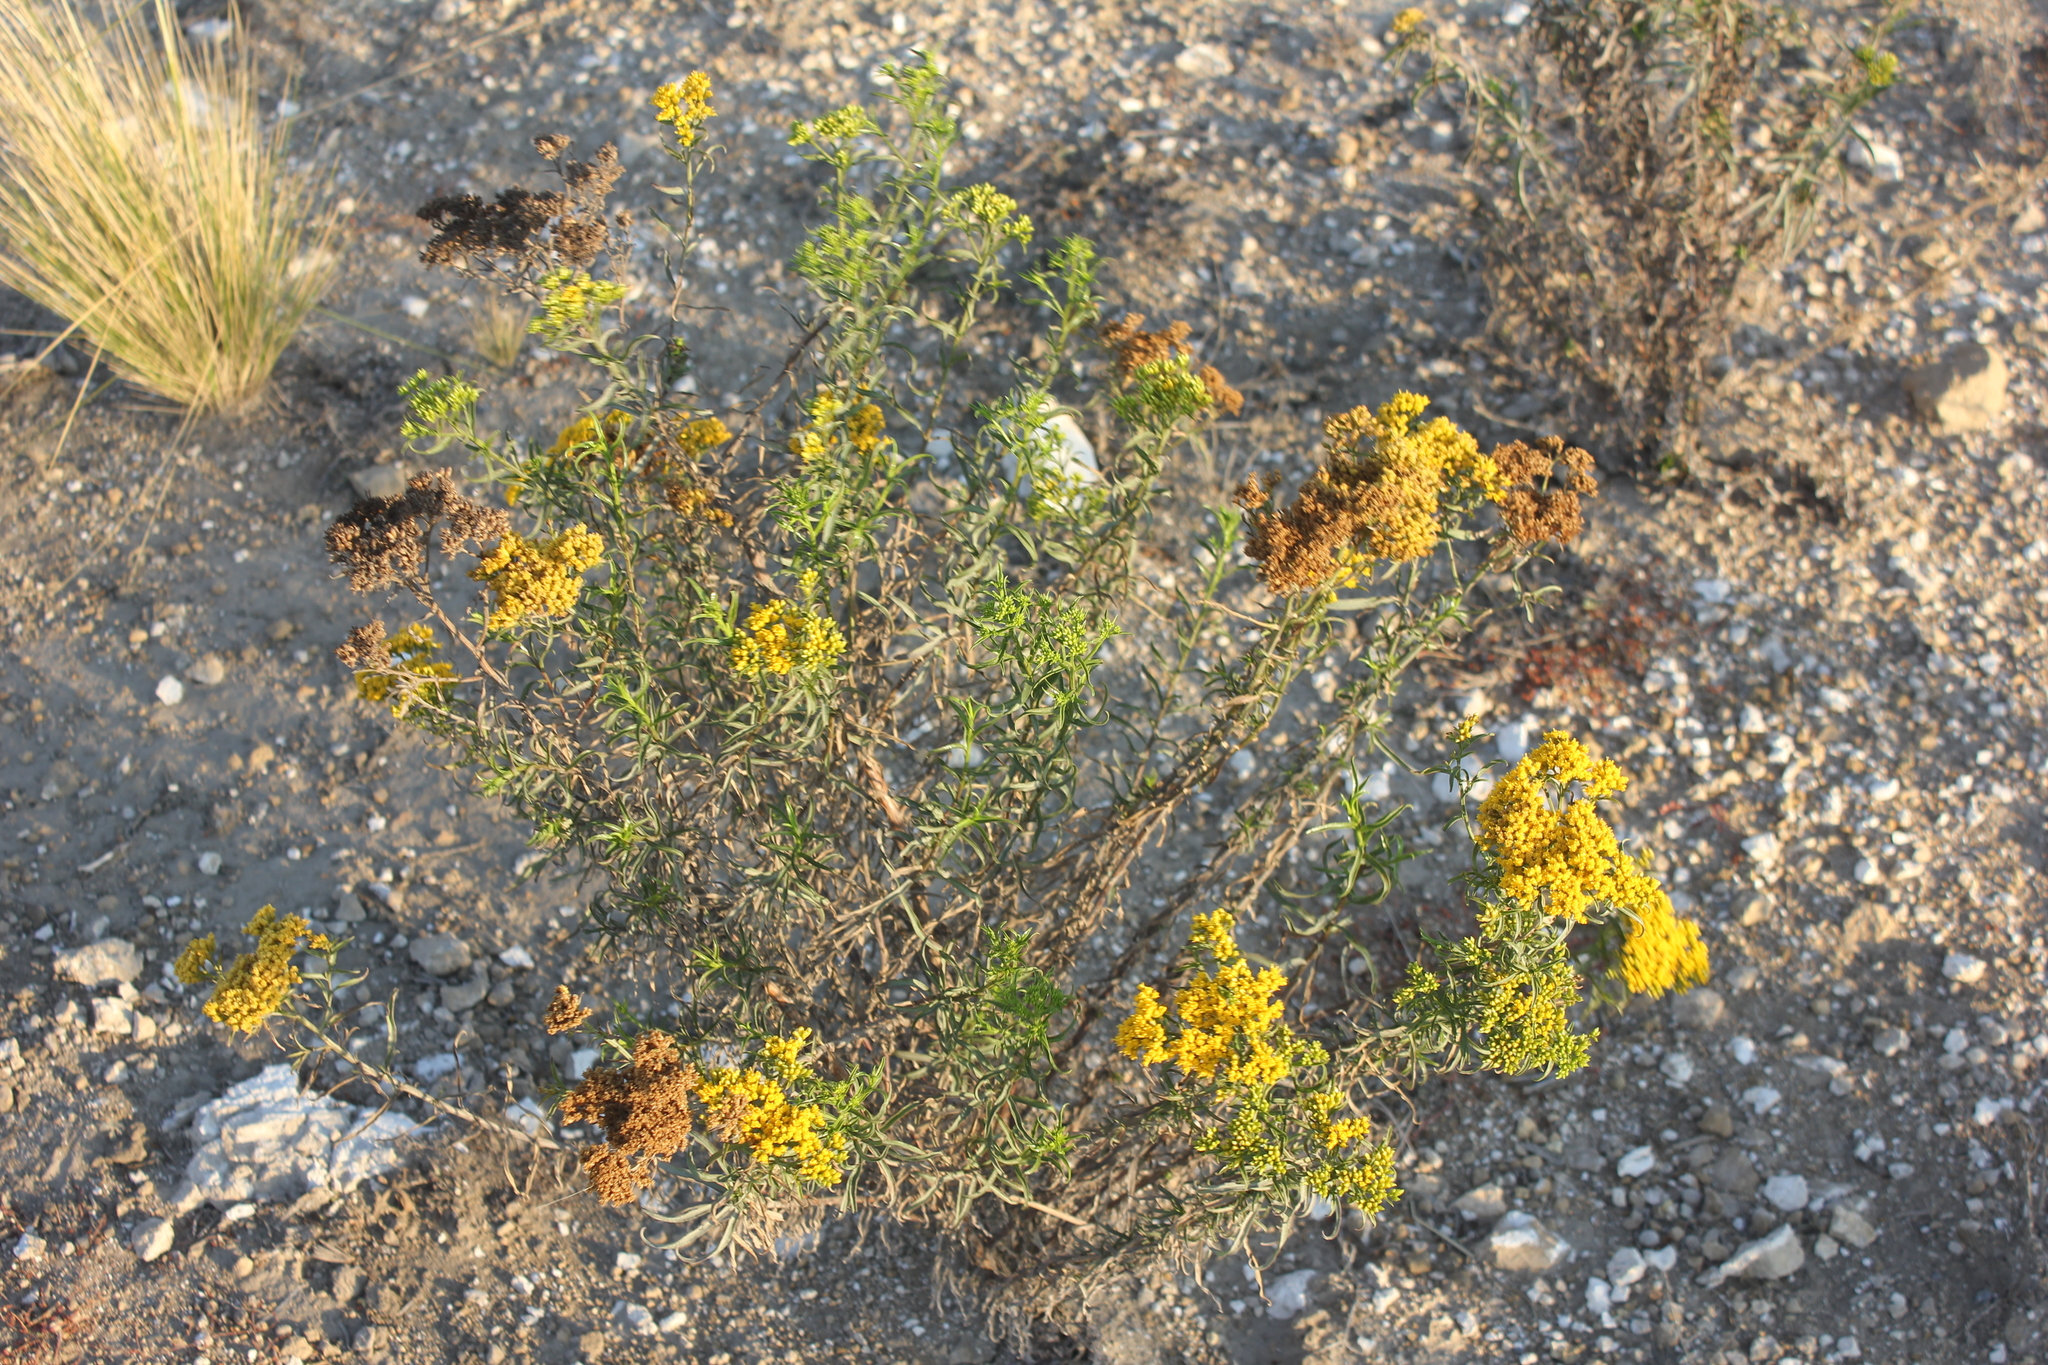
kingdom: Plantae
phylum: Tracheophyta
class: Magnoliopsida
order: Asterales
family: Asteraceae
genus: Gymnosperma
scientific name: Gymnosperma glutinosum
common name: Gumhead
